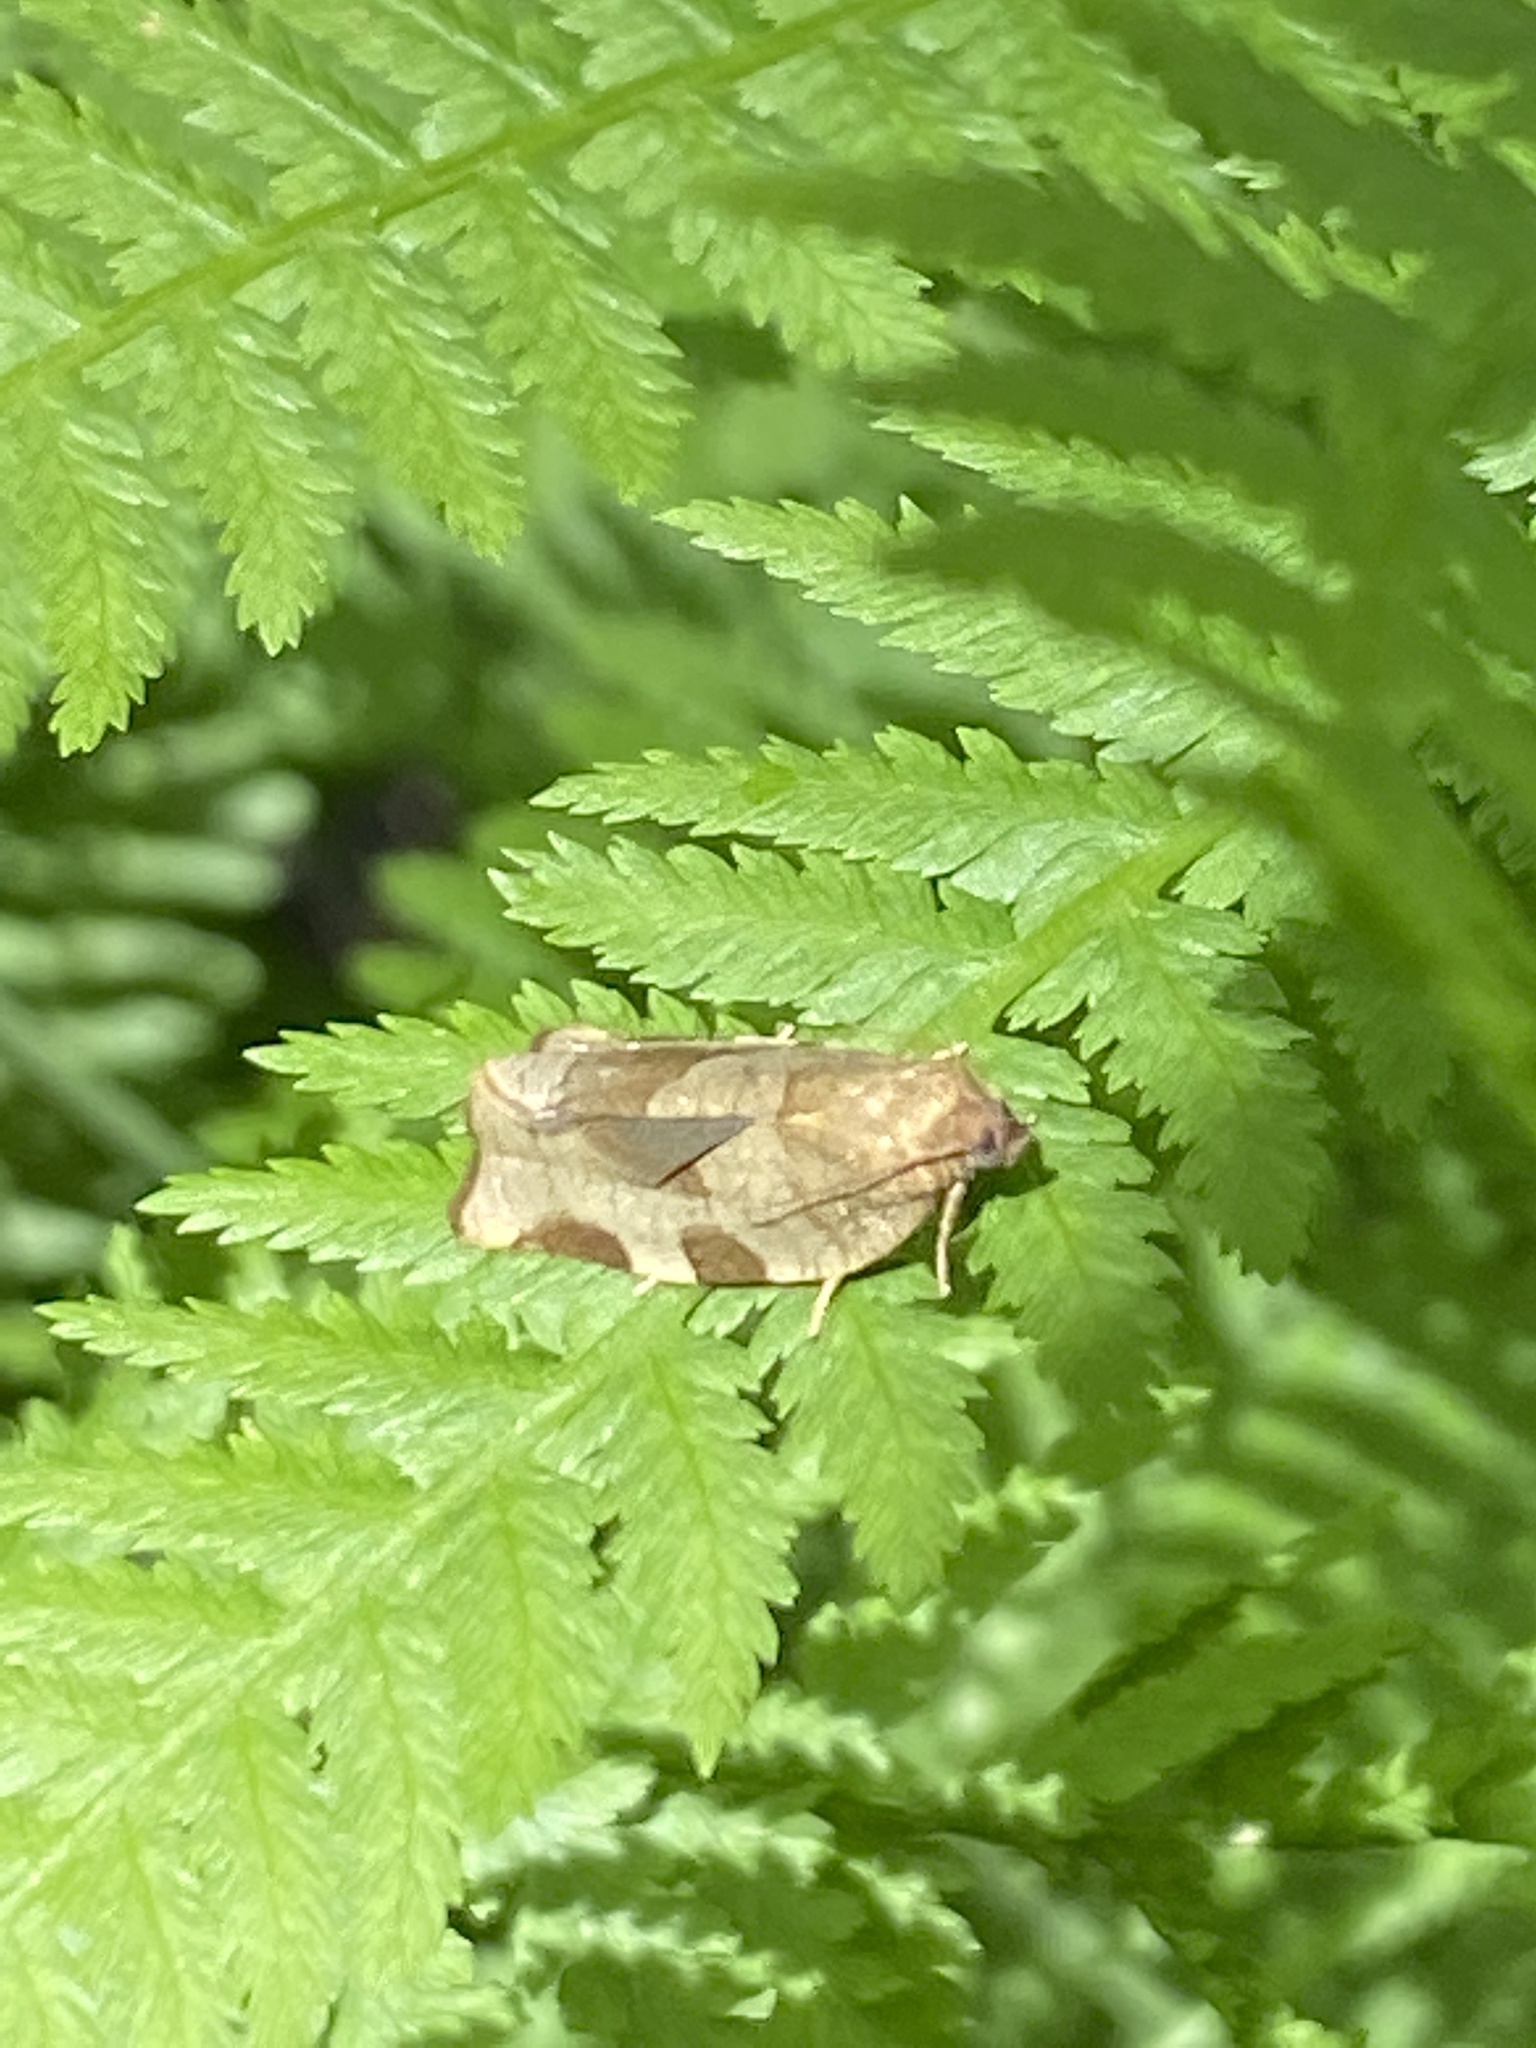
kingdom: Animalia
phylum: Arthropoda
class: Insecta
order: Lepidoptera
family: Tortricidae
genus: Choristoneura
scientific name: Choristoneura hebenstreitella
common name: Great twist
